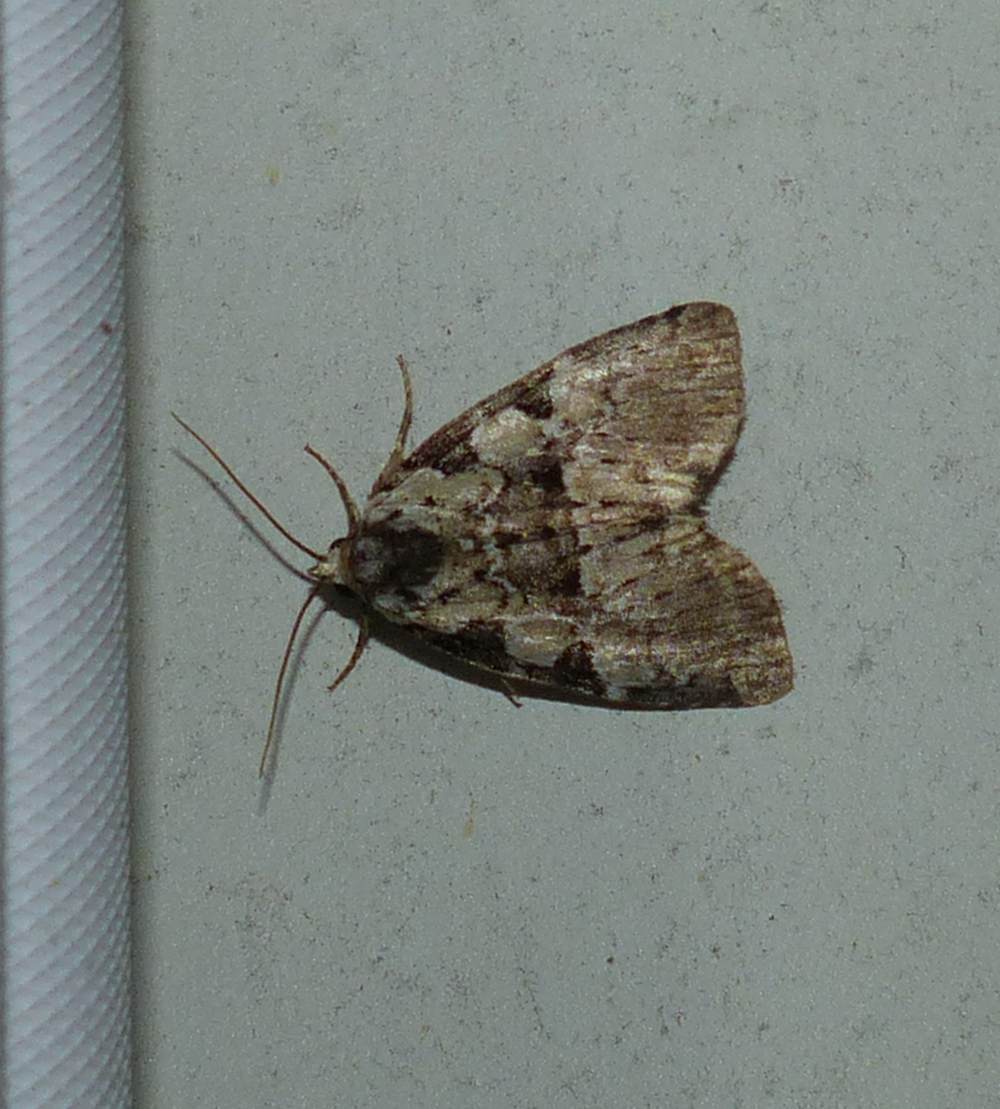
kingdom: Animalia
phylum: Arthropoda
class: Insecta
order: Lepidoptera
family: Noctuidae
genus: Leuconycta
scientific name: Leuconycta lepidula
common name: Marbled-green leuconycta moth
